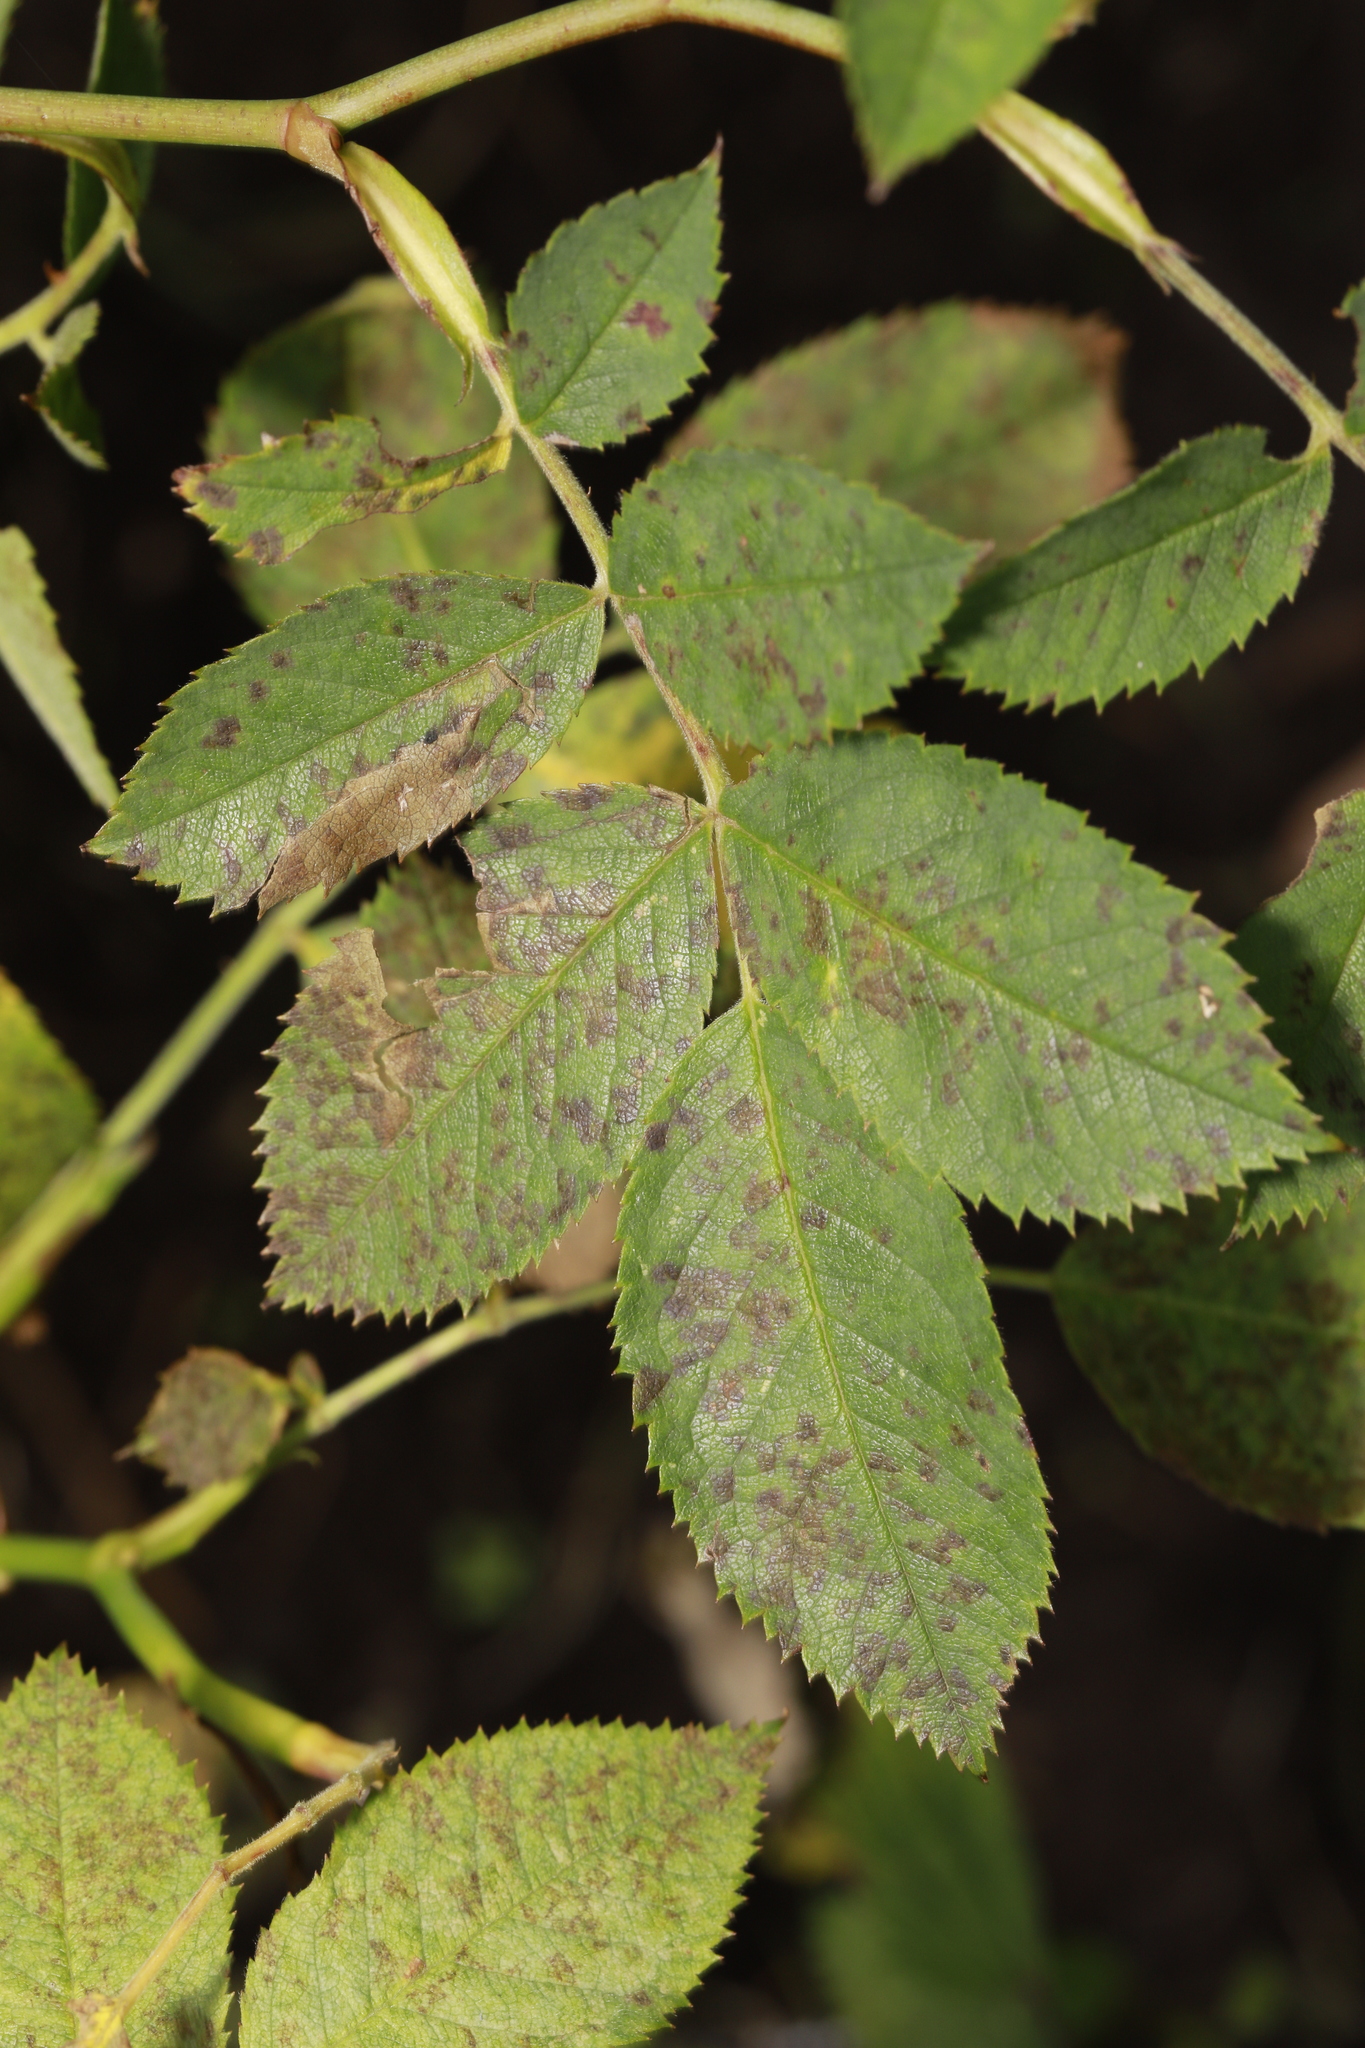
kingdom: Fungi
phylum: Ascomycota
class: Leotiomycetes
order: Helotiales
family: Drepanopezizaceae
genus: Diplocarpon
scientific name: Diplocarpon rosae
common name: Rose black-spot
